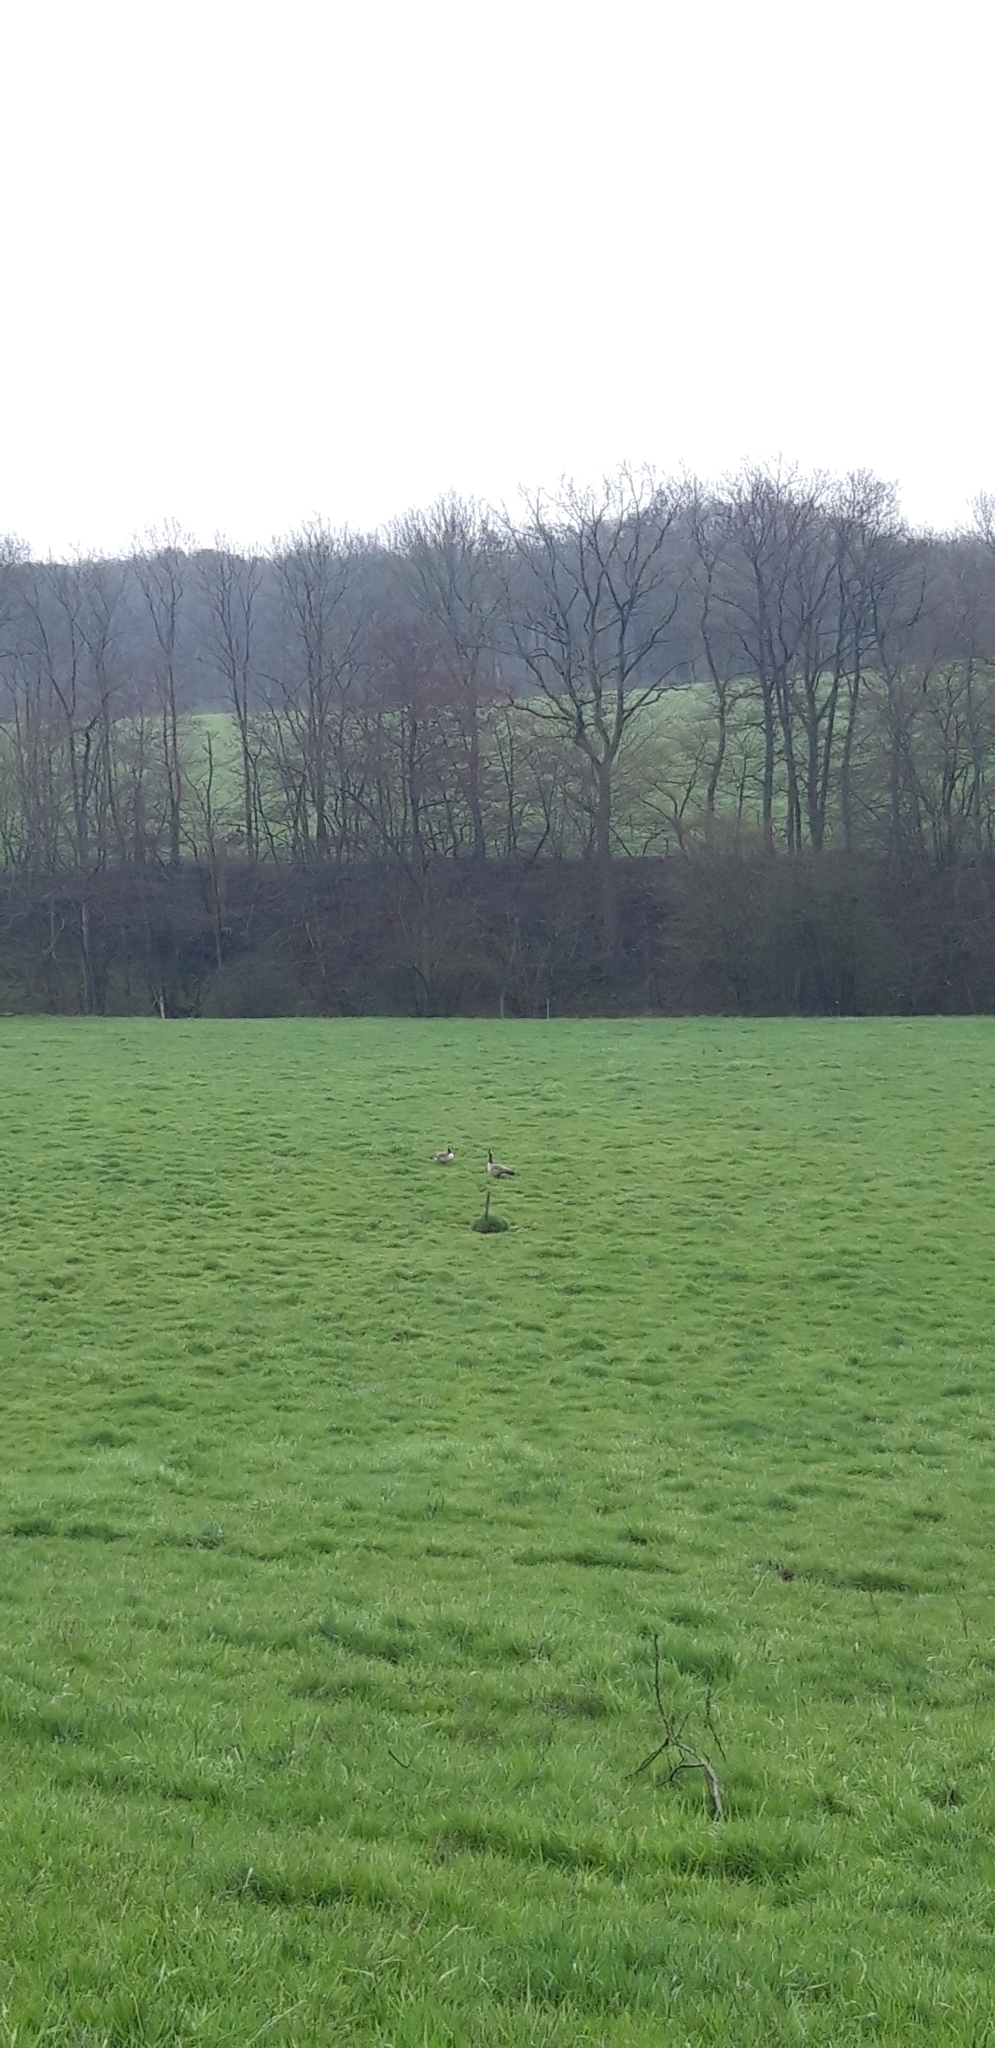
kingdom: Animalia
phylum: Chordata
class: Aves
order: Anseriformes
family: Anatidae
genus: Branta
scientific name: Branta canadensis
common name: Canada goose
